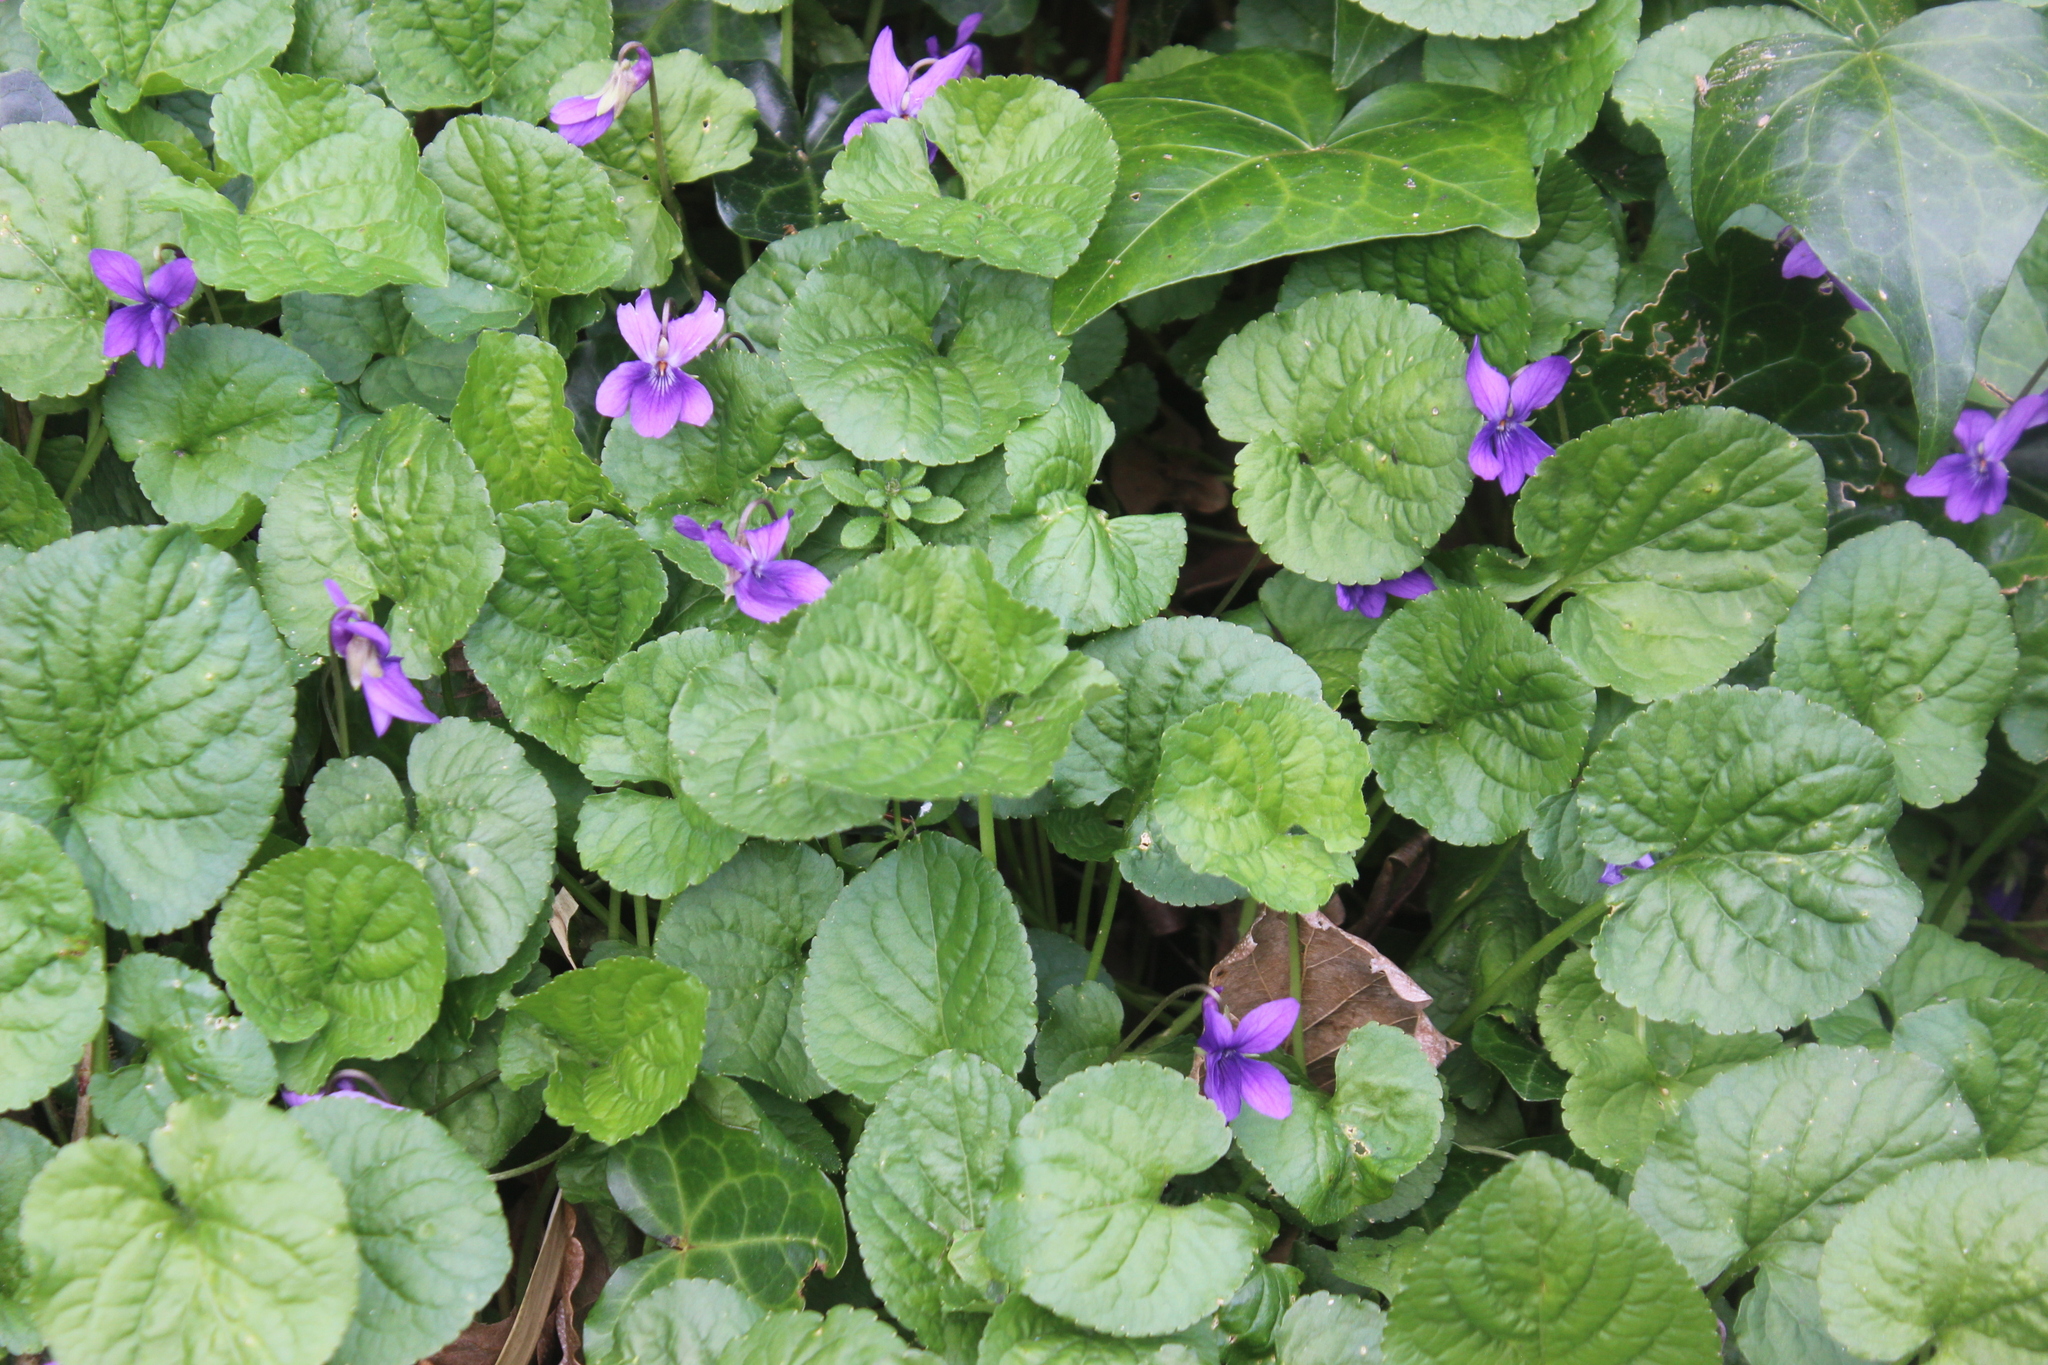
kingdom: Plantae
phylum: Tracheophyta
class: Magnoliopsida
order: Malpighiales
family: Violaceae
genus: Viola
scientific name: Viola odorata
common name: Sweet violet
